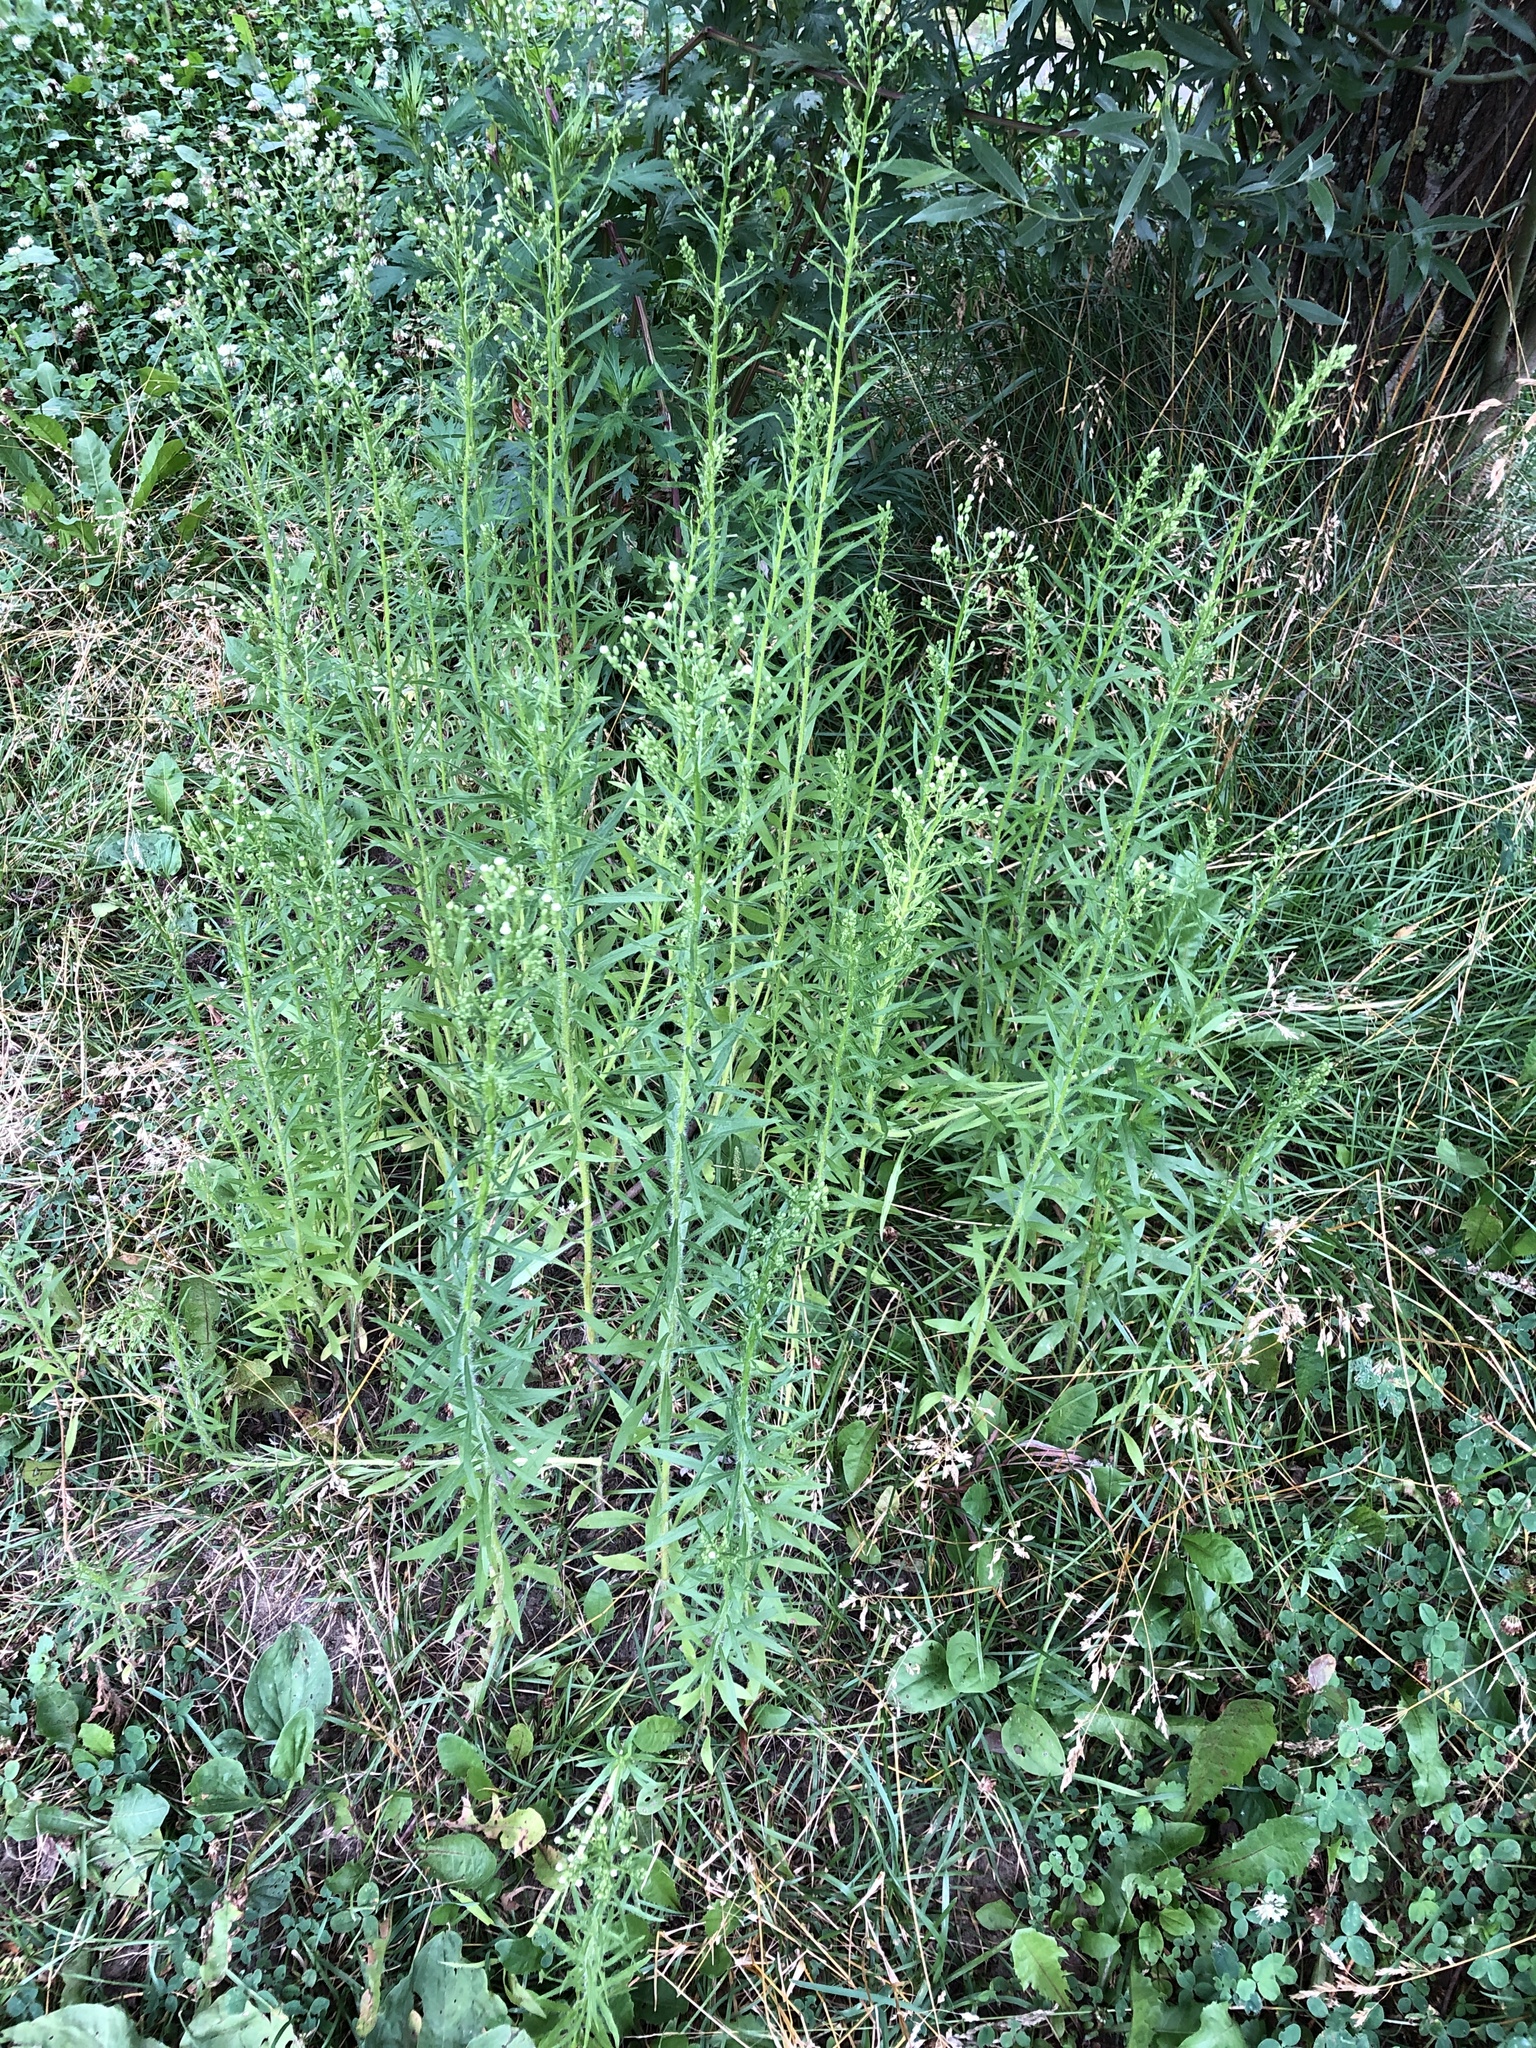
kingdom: Plantae
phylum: Tracheophyta
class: Magnoliopsida
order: Asterales
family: Asteraceae
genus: Erigeron
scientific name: Erigeron canadensis
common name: Canadian fleabane
